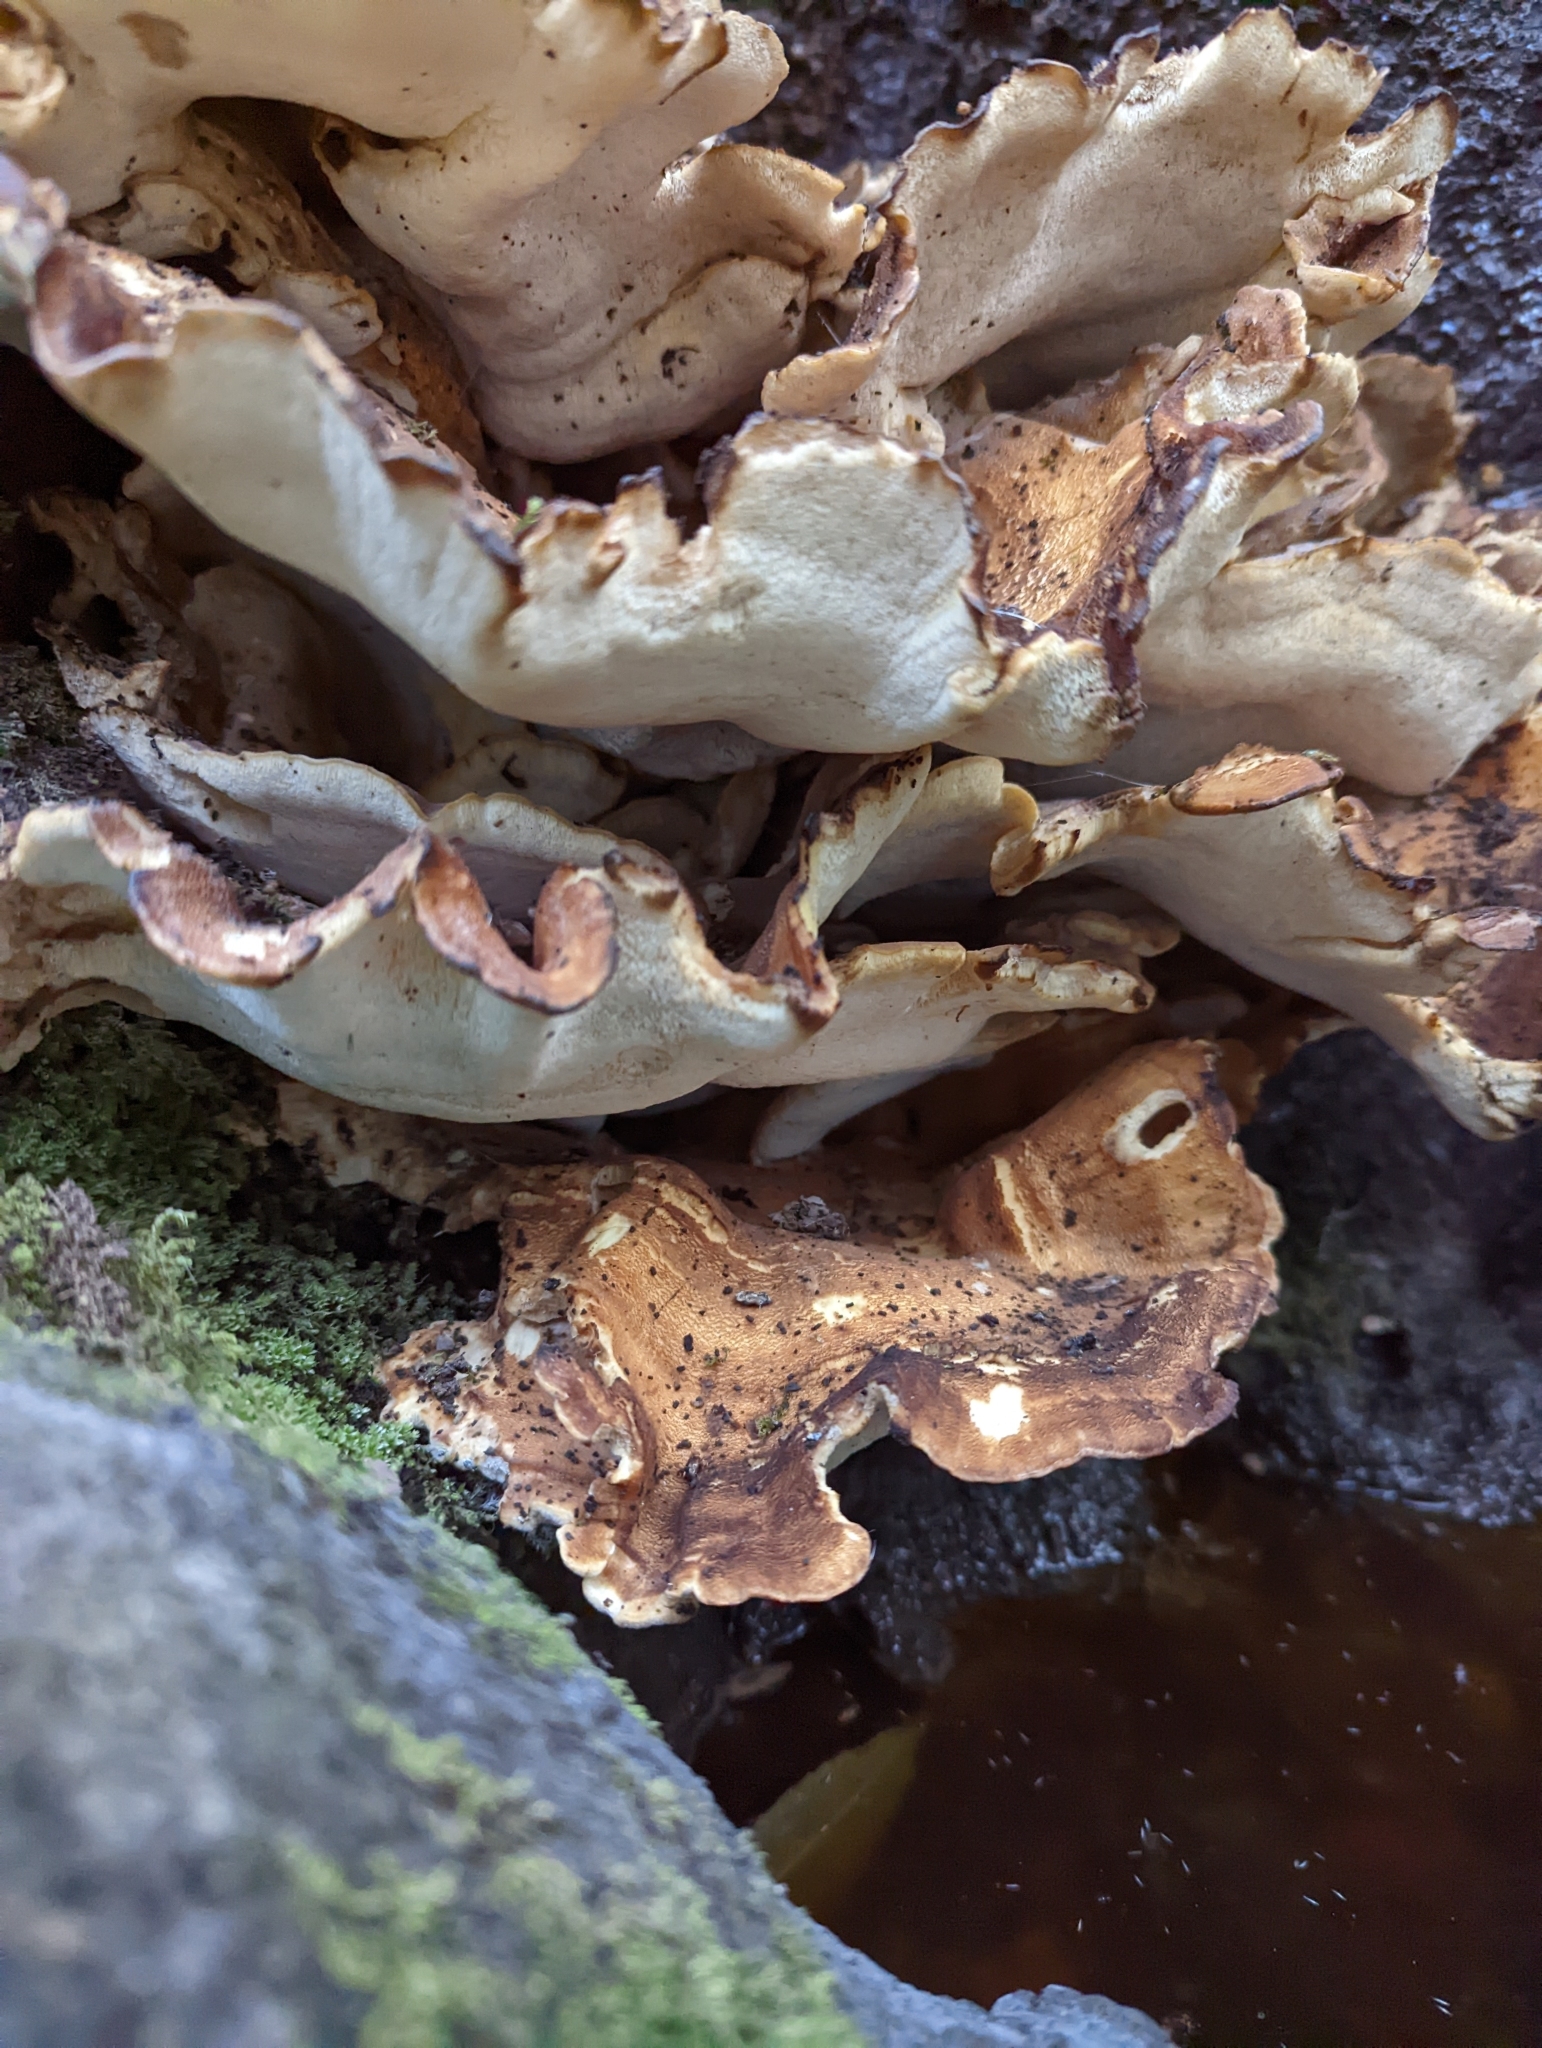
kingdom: Fungi
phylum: Basidiomycota
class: Agaricomycetes
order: Polyporales
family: Meripilaceae
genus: Meripilus
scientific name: Meripilus giganteus
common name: Giant polypore
